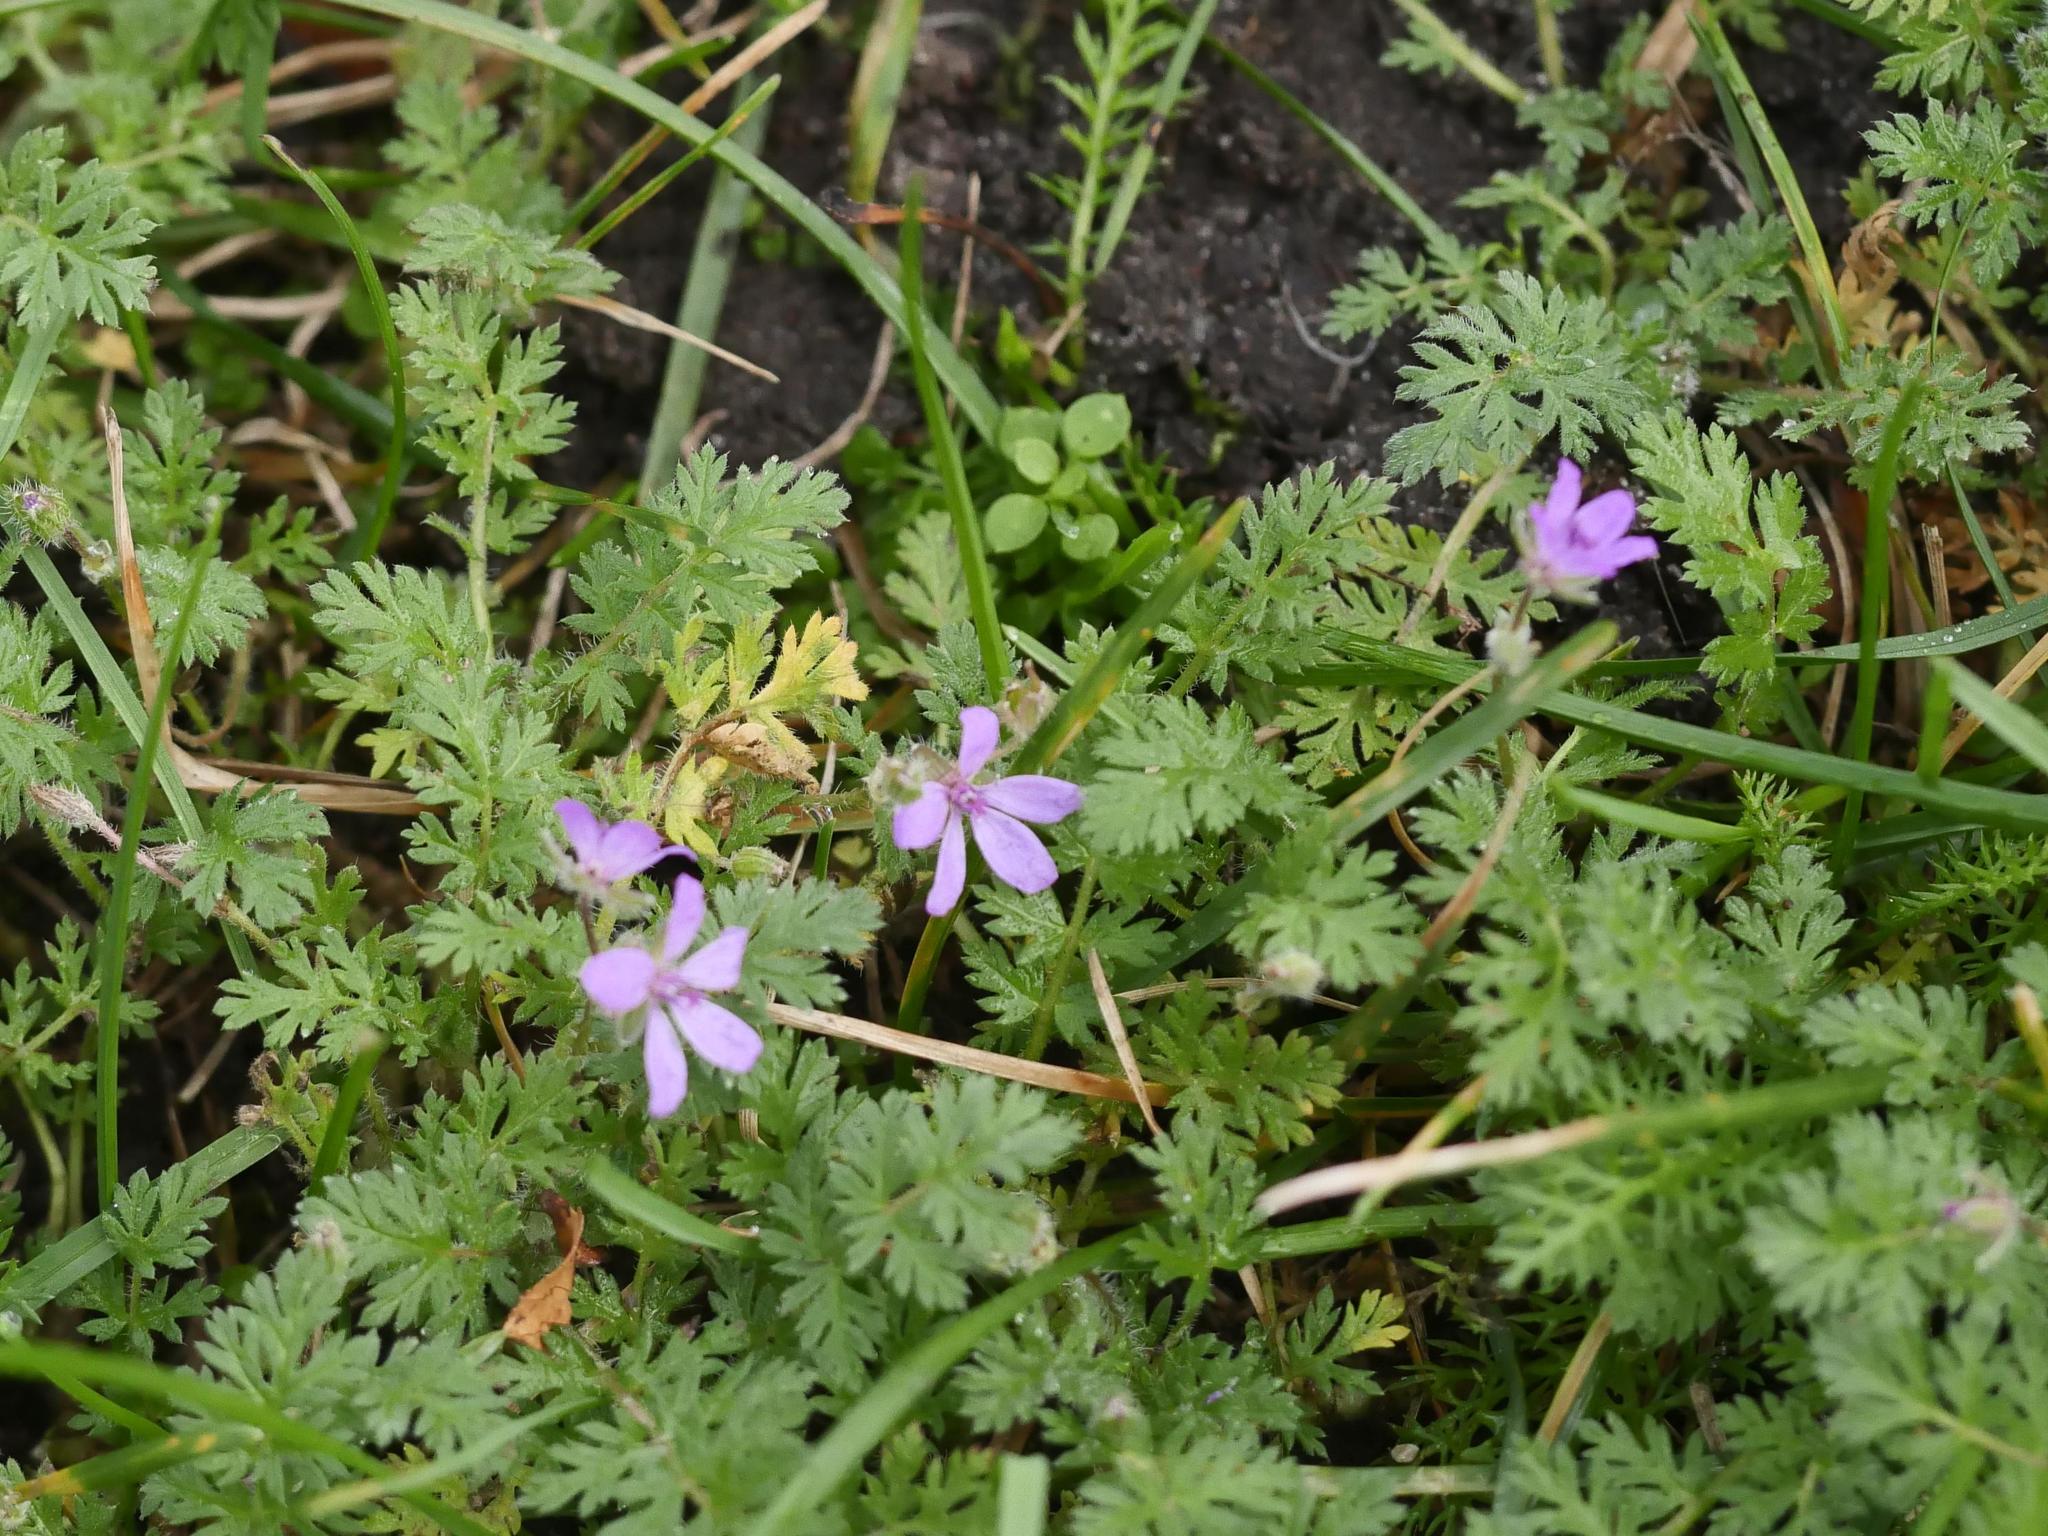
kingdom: Plantae
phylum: Tracheophyta
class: Magnoliopsida
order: Geraniales
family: Geraniaceae
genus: Erodium
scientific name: Erodium cicutarium
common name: Common stork's-bill
